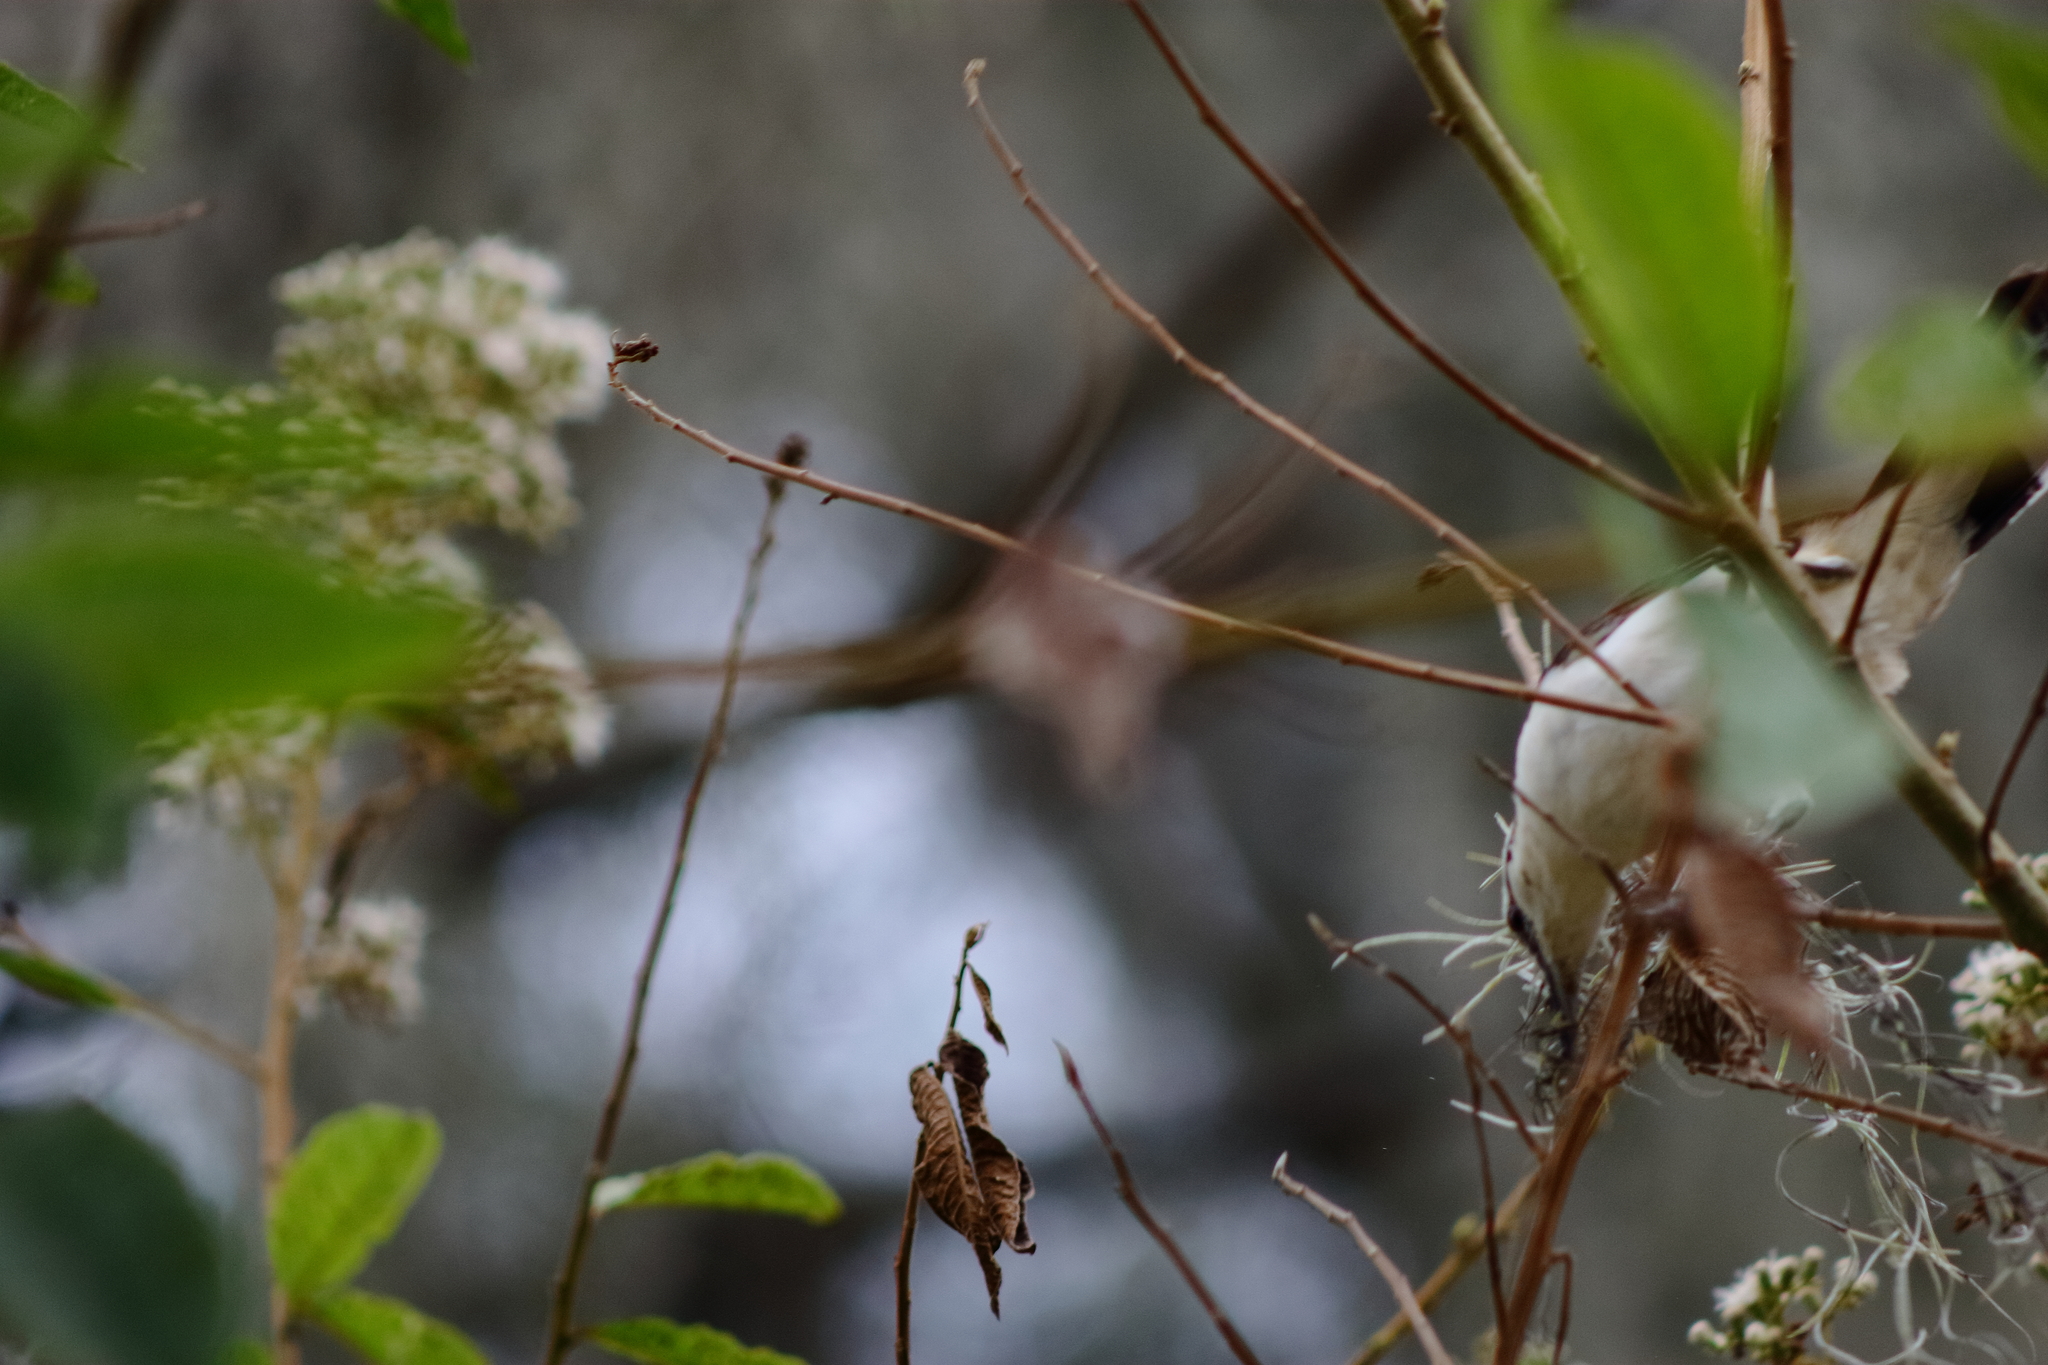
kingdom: Animalia
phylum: Chordata
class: Aves
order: Passeriformes
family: Troglodytidae
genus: Campylorhynchus
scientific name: Campylorhynchus griseus
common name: Bicolored wren
